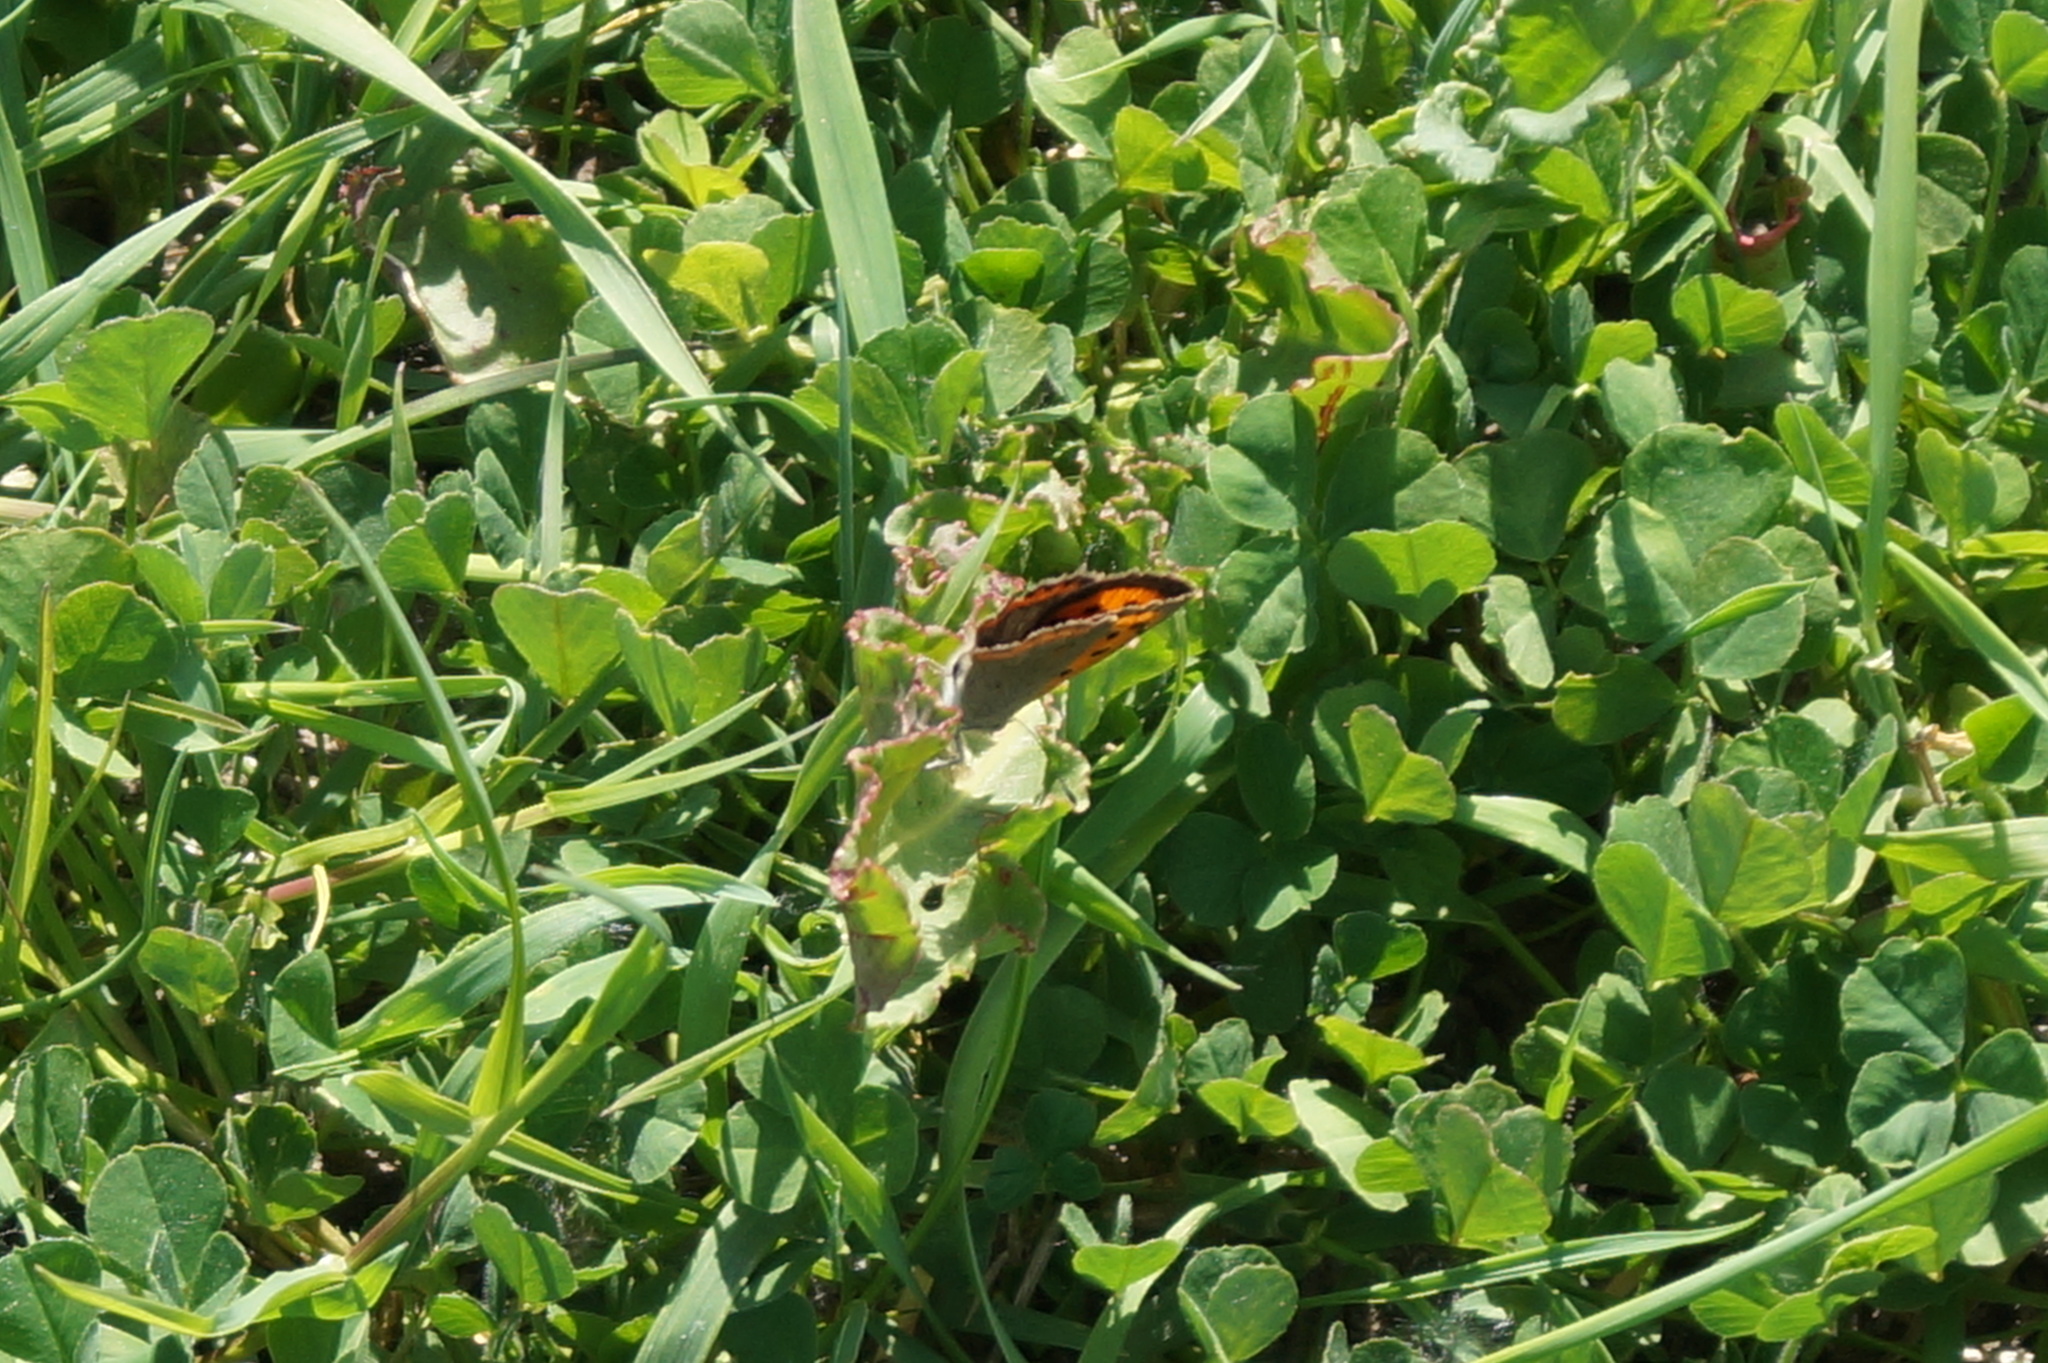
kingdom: Animalia
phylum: Arthropoda
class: Insecta
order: Lepidoptera
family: Lycaenidae
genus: Lycaena
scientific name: Lycaena phlaeas
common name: Small copper
